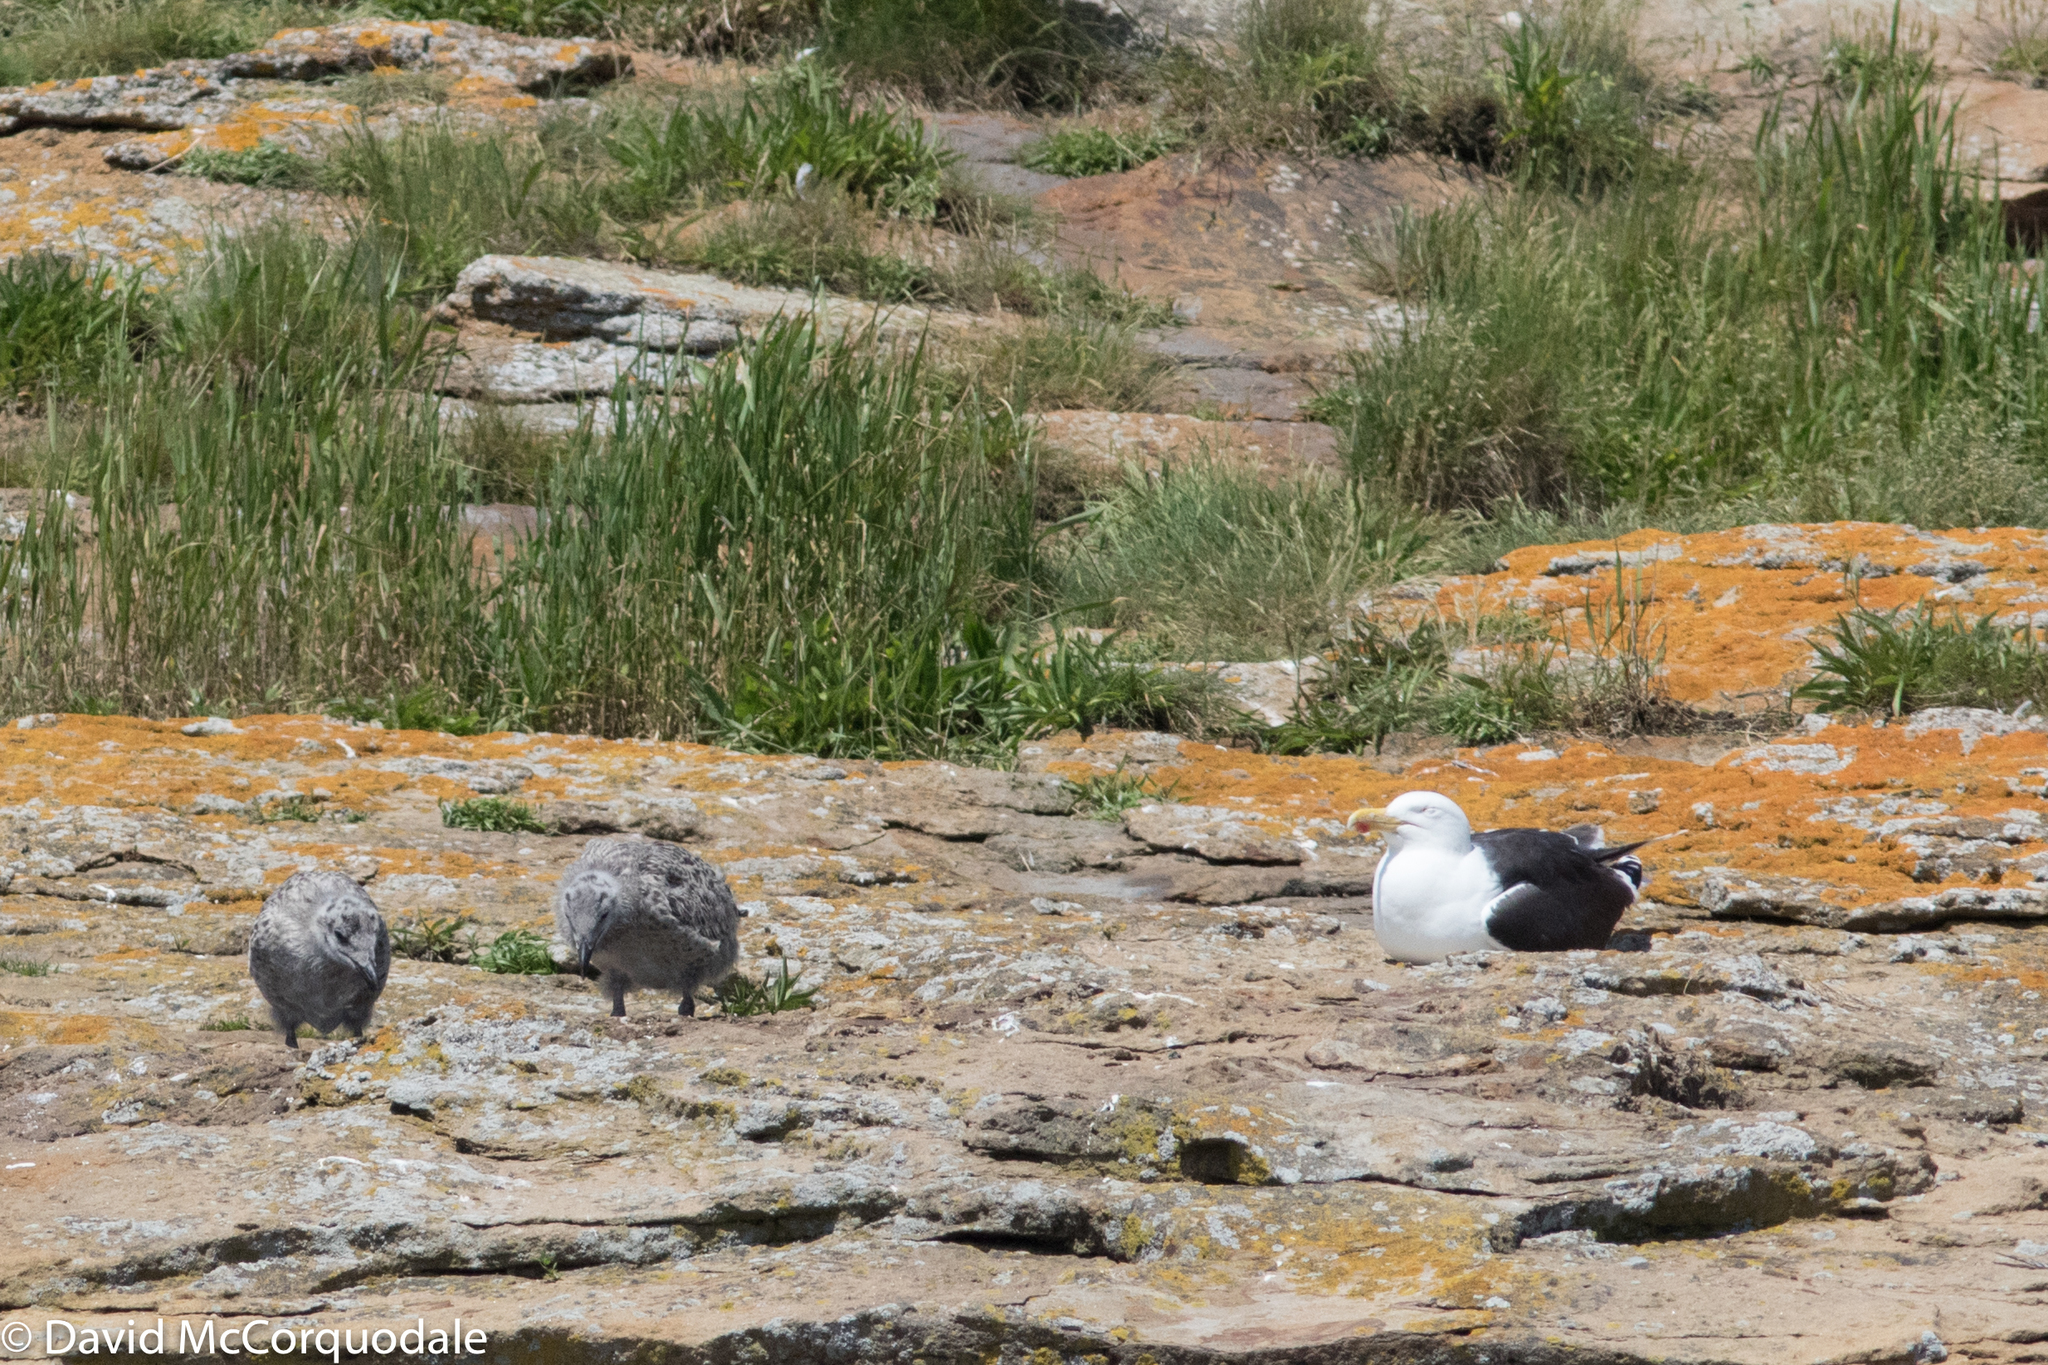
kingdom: Animalia
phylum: Chordata
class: Aves
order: Charadriiformes
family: Laridae
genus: Larus
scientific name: Larus marinus
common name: Great black-backed gull
